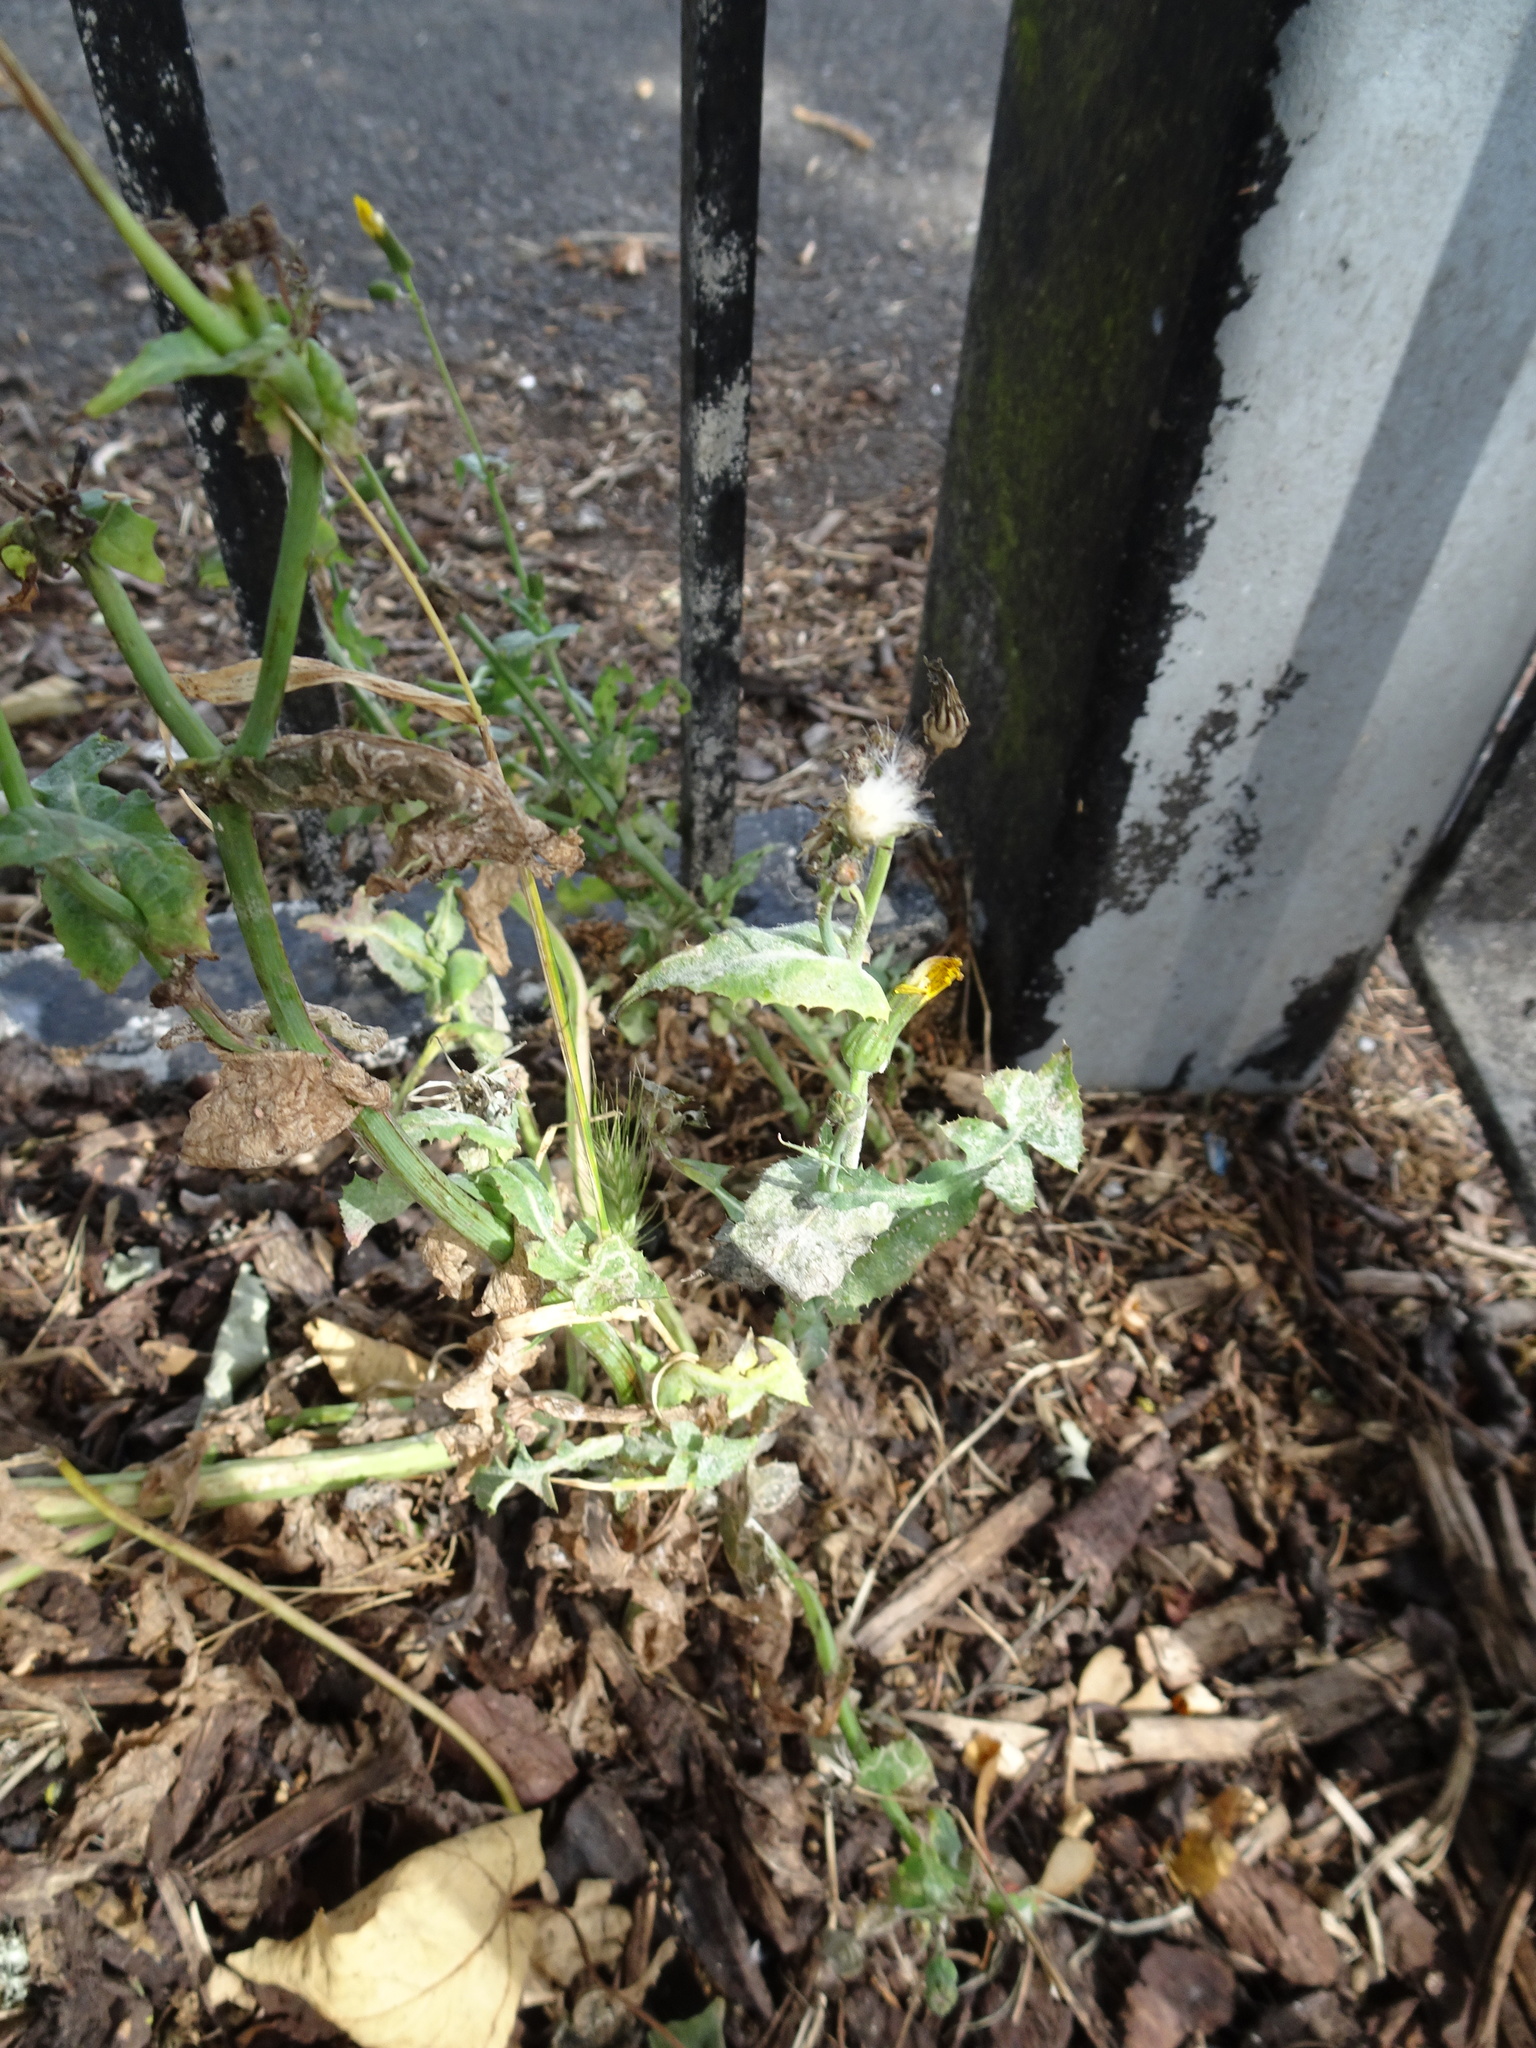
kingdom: Plantae
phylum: Tracheophyta
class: Magnoliopsida
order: Asterales
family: Asteraceae
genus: Sonchus
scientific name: Sonchus oleraceus
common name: Common sowthistle
